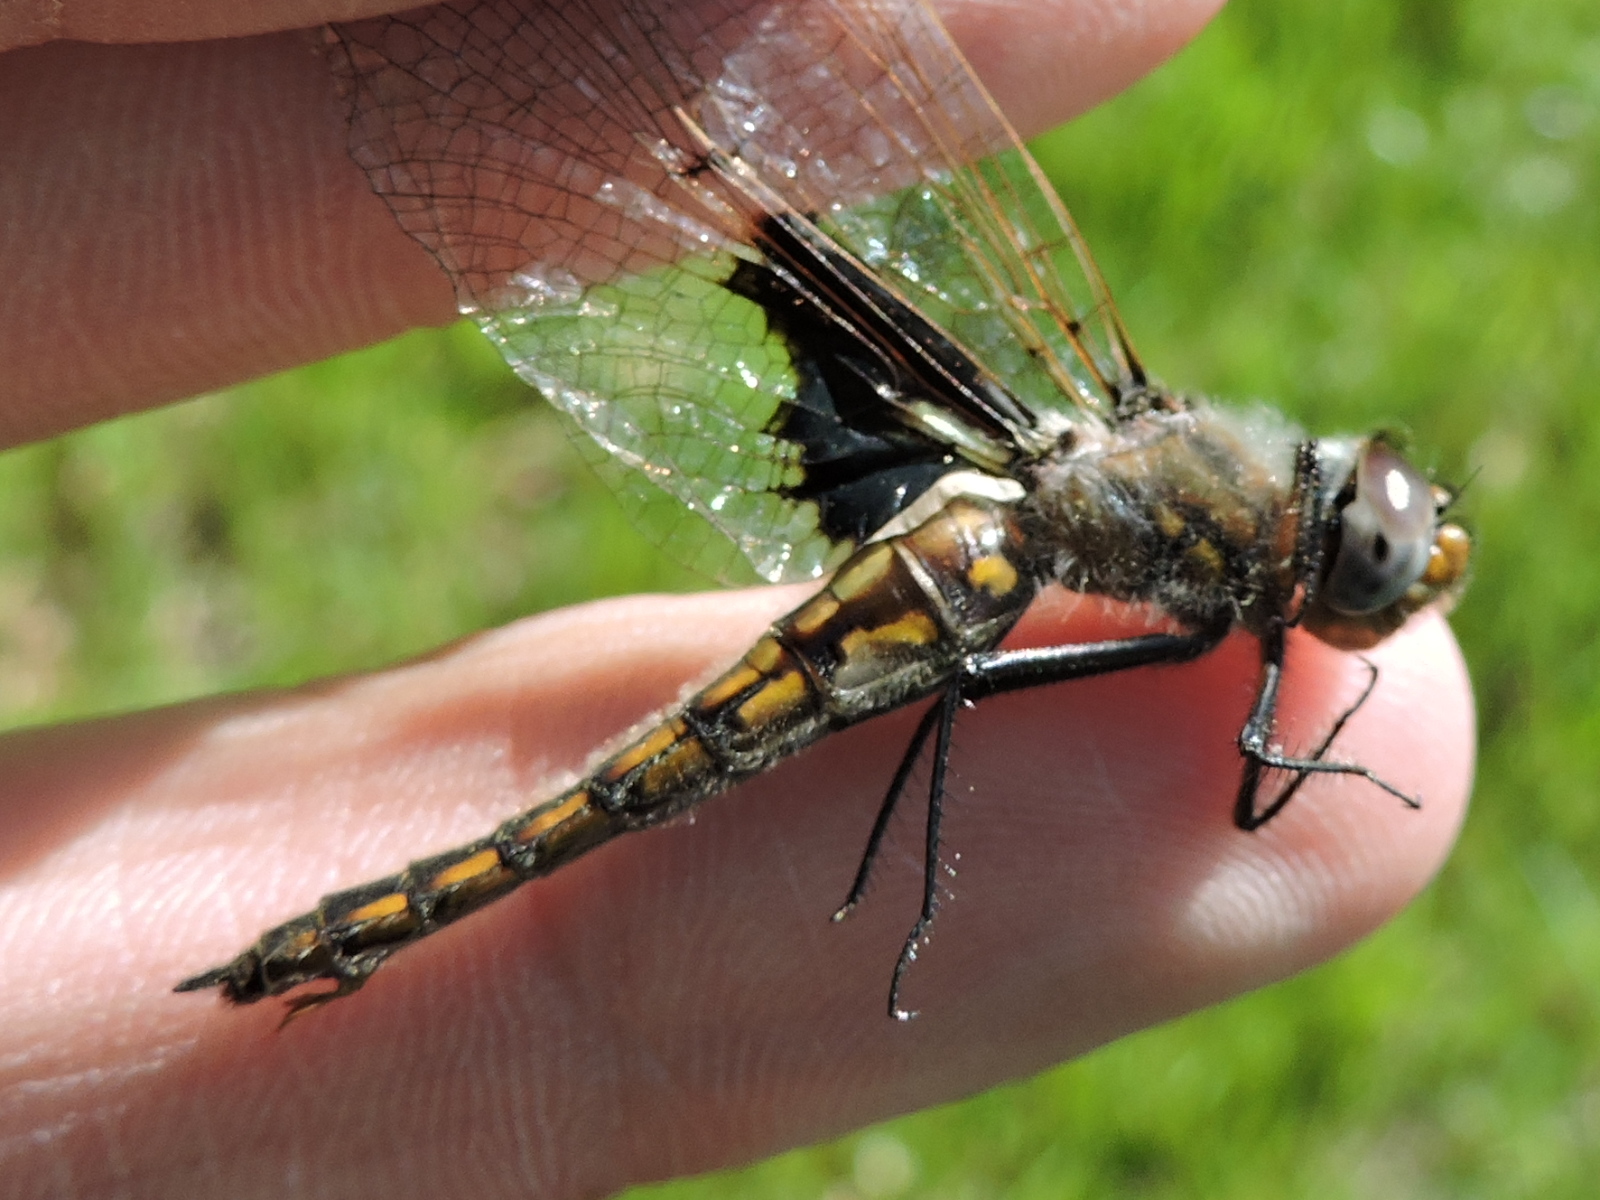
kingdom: Animalia
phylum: Arthropoda
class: Insecta
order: Odonata
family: Corduliidae
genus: Epitheca
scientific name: Epitheca semiaquea
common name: Mantled baskettail
